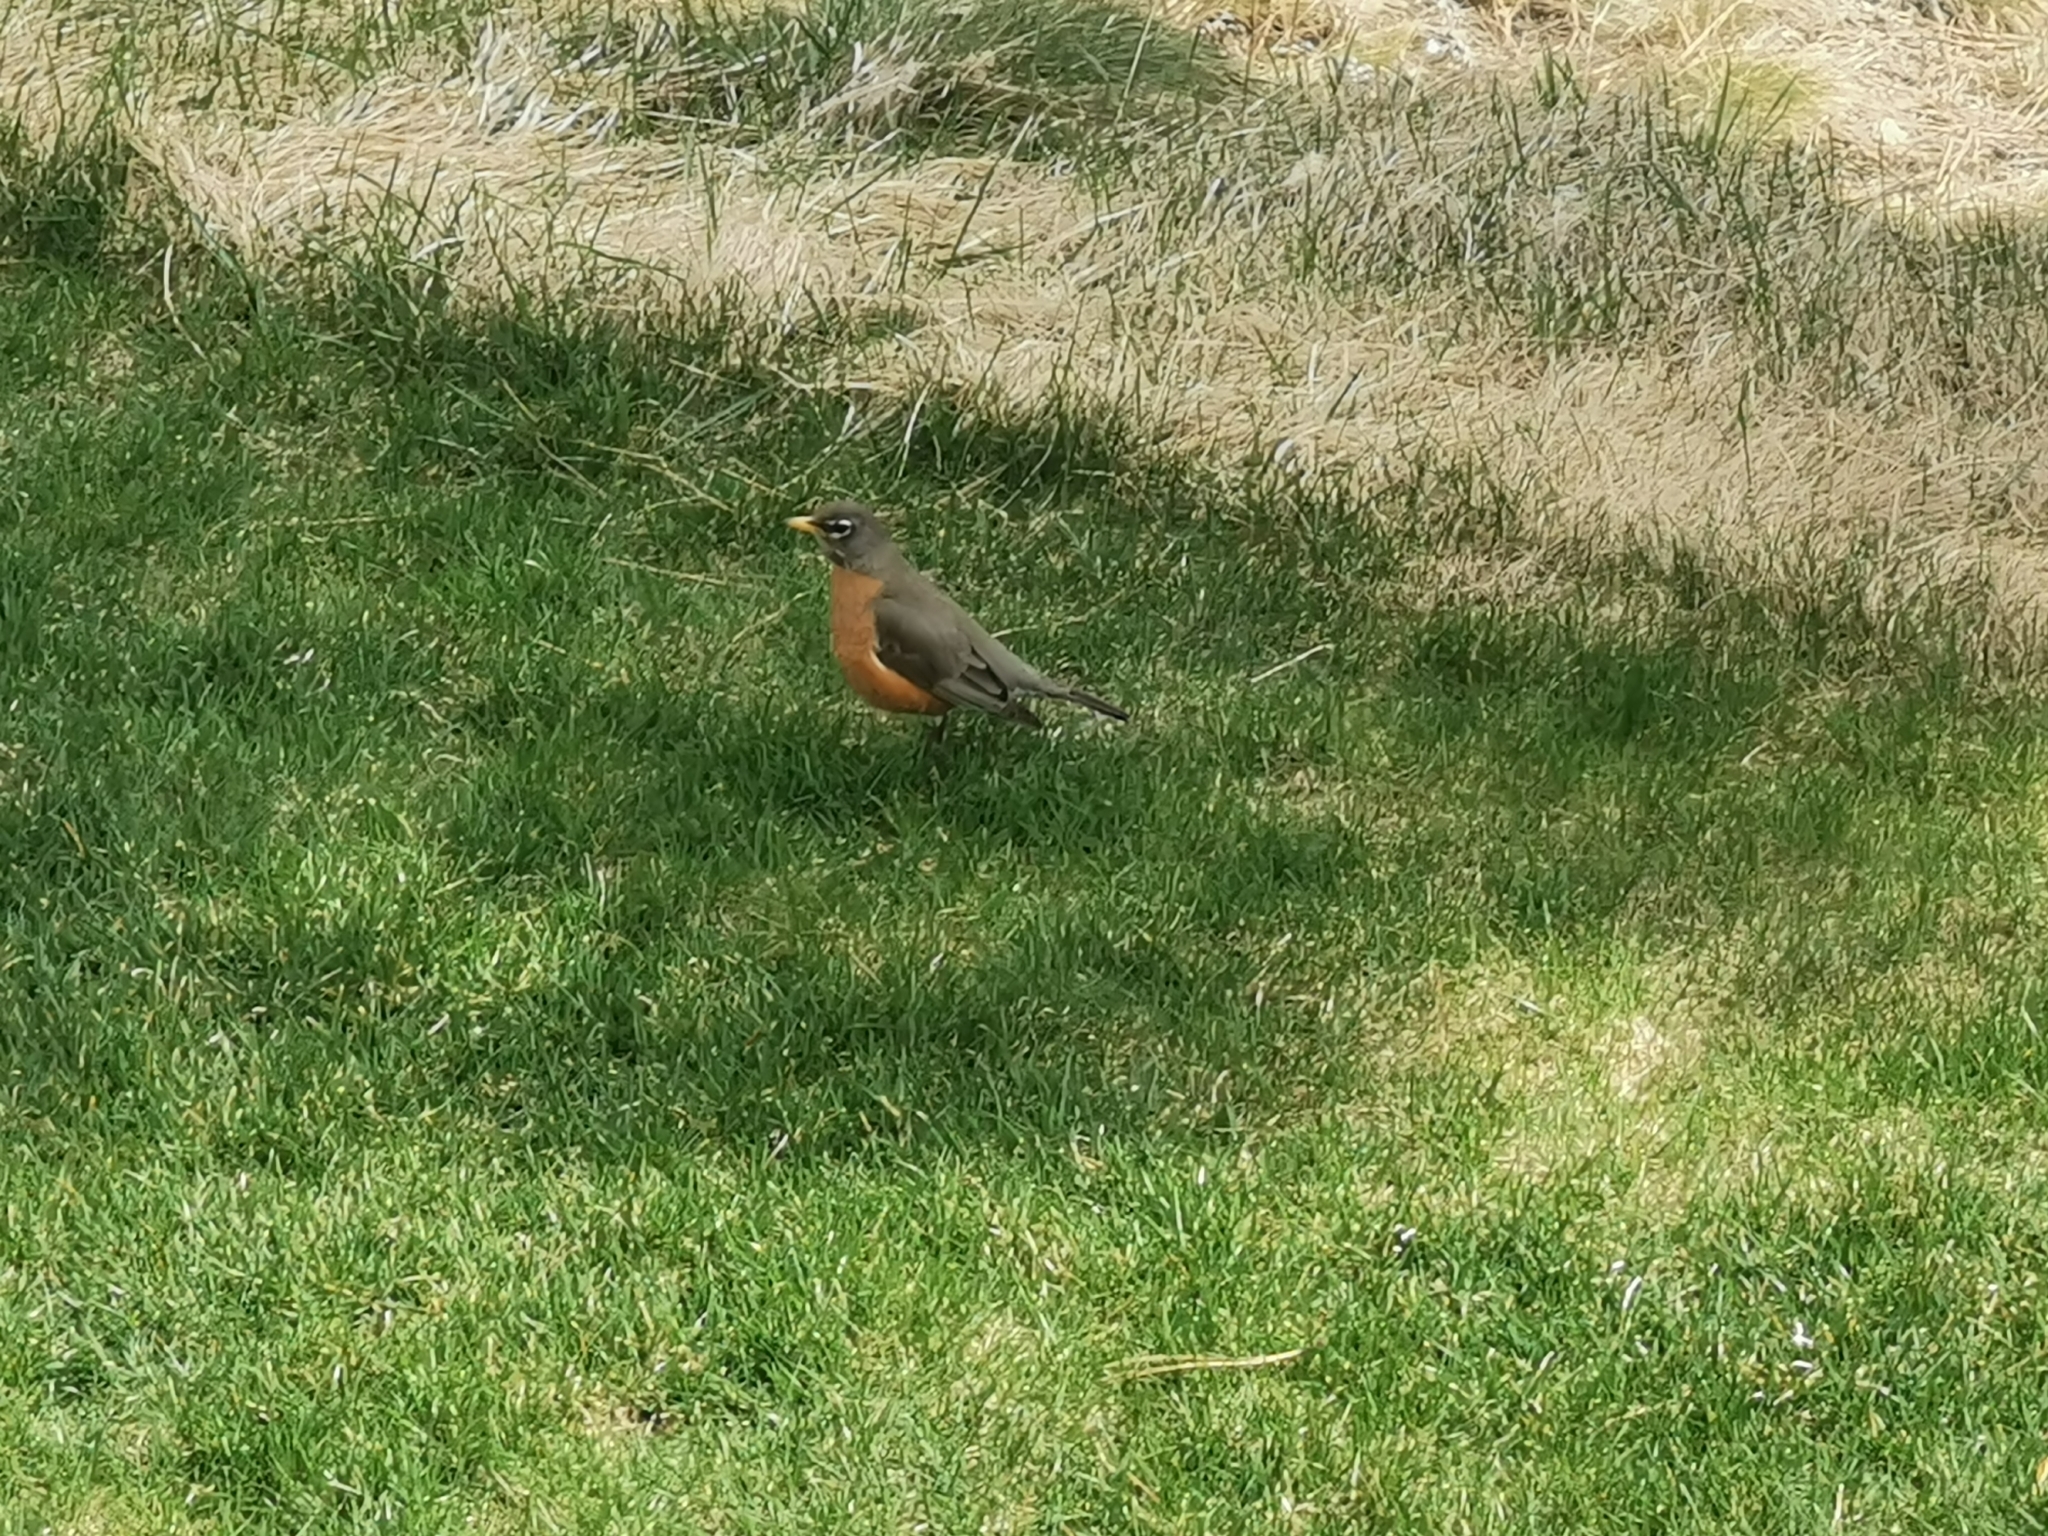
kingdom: Animalia
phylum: Chordata
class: Aves
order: Passeriformes
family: Turdidae
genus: Turdus
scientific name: Turdus migratorius
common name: American robin
